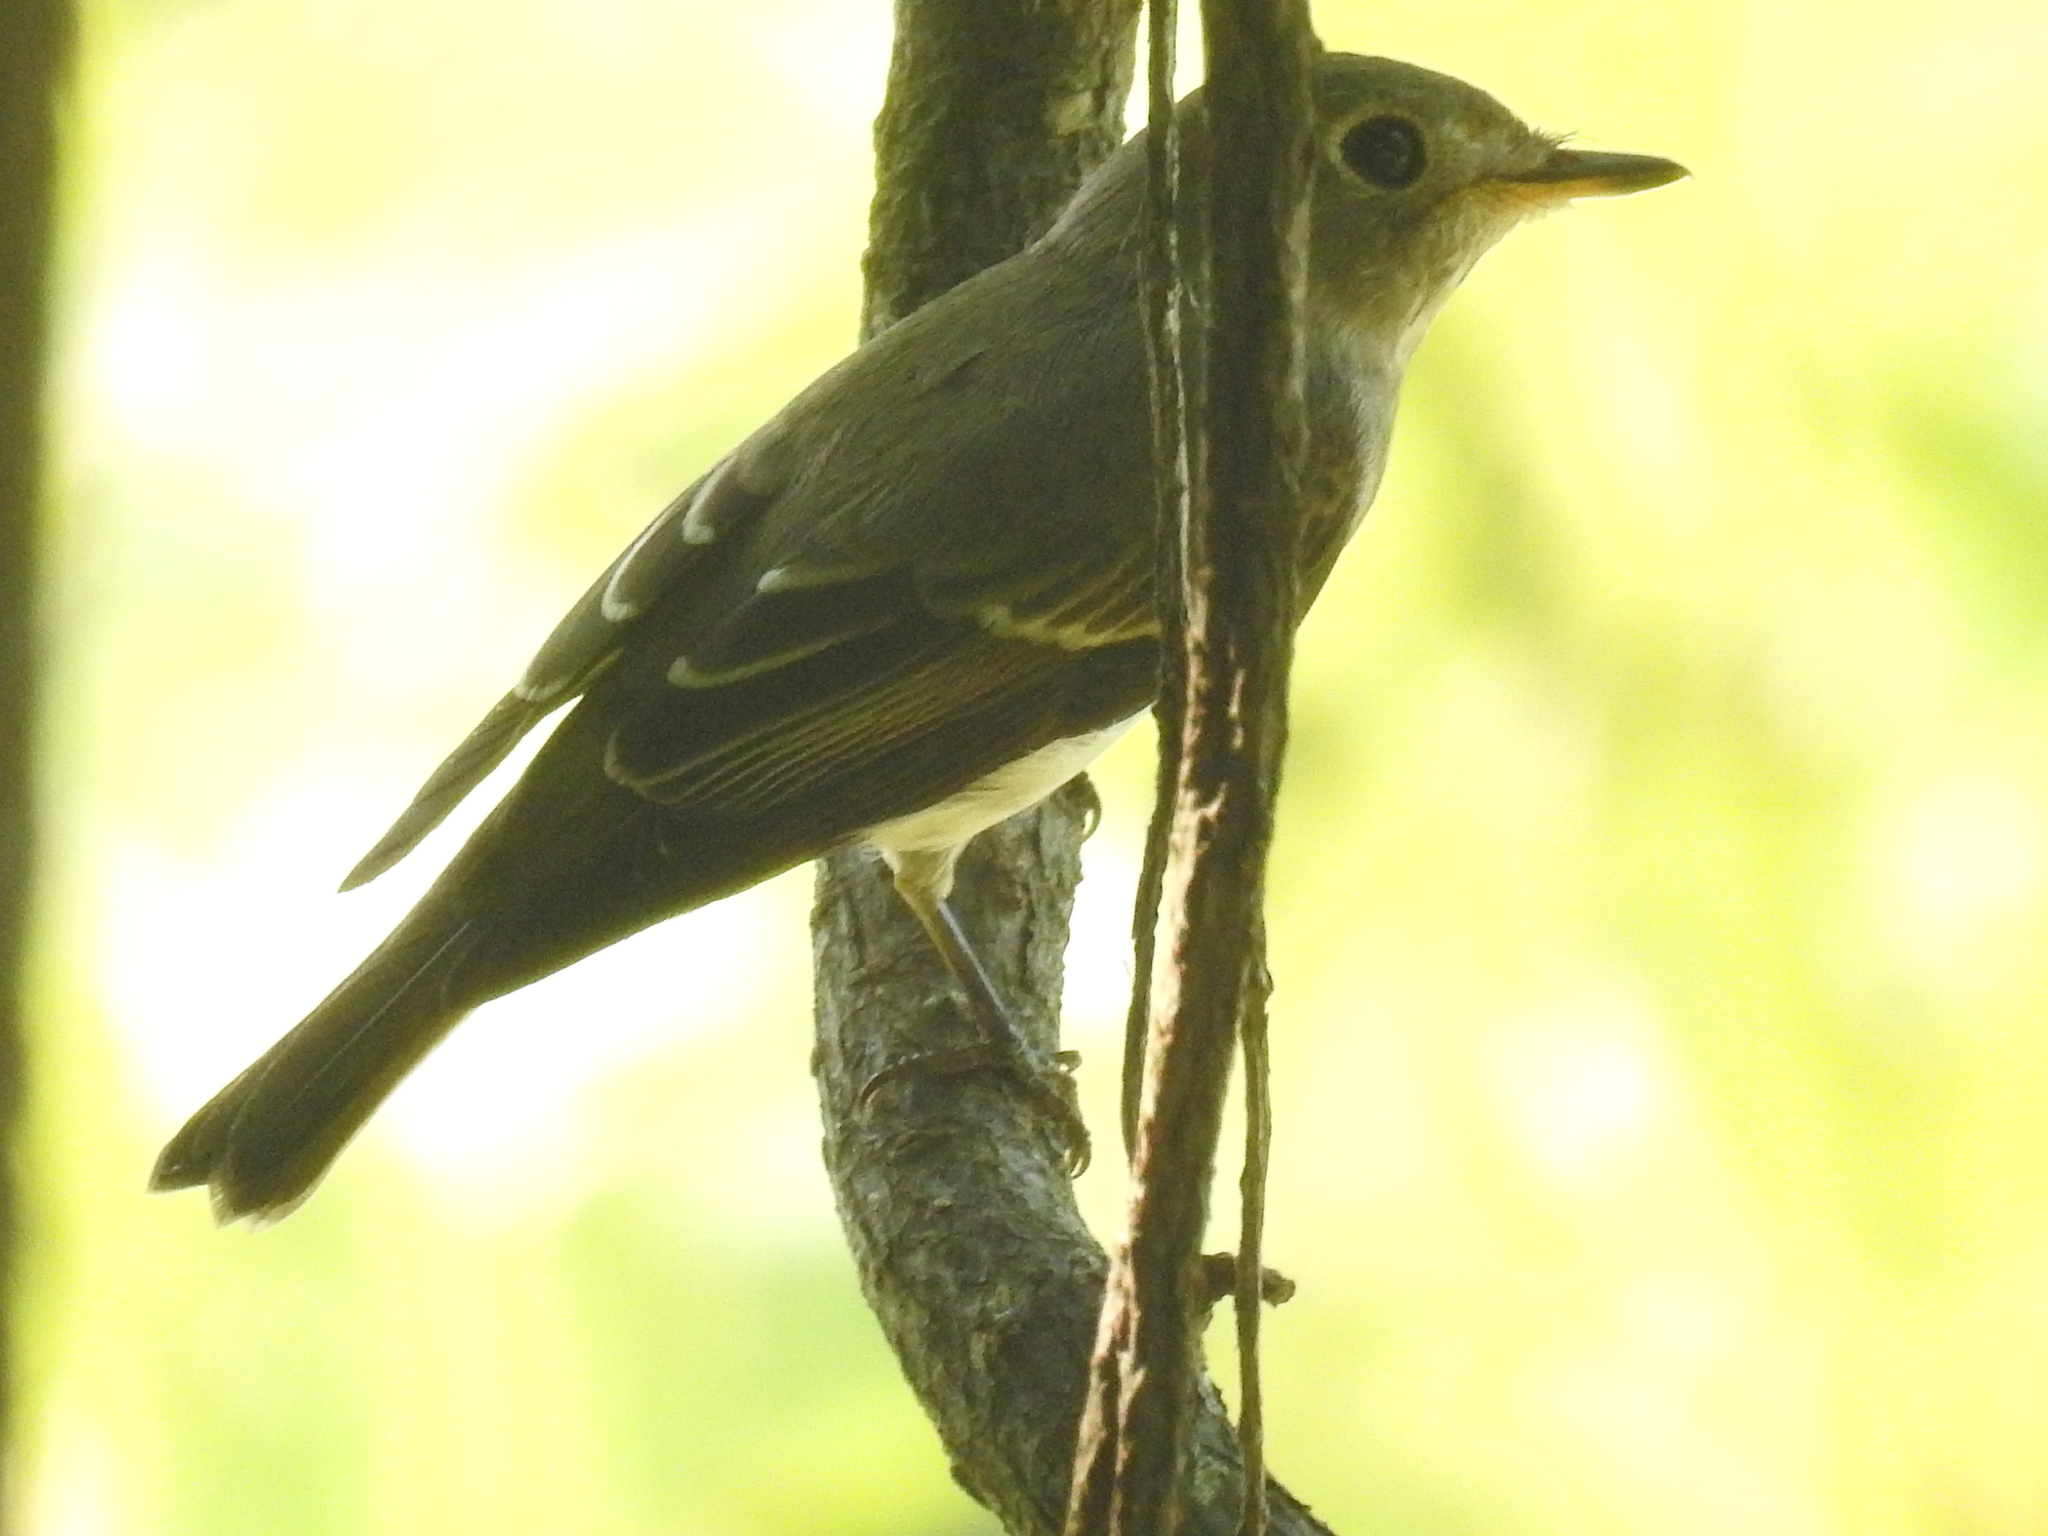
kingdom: Animalia
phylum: Chordata
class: Aves
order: Passeriformes
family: Muscicapidae
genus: Muscicapa
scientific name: Muscicapa latirostris
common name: Asian brown flycatcher
